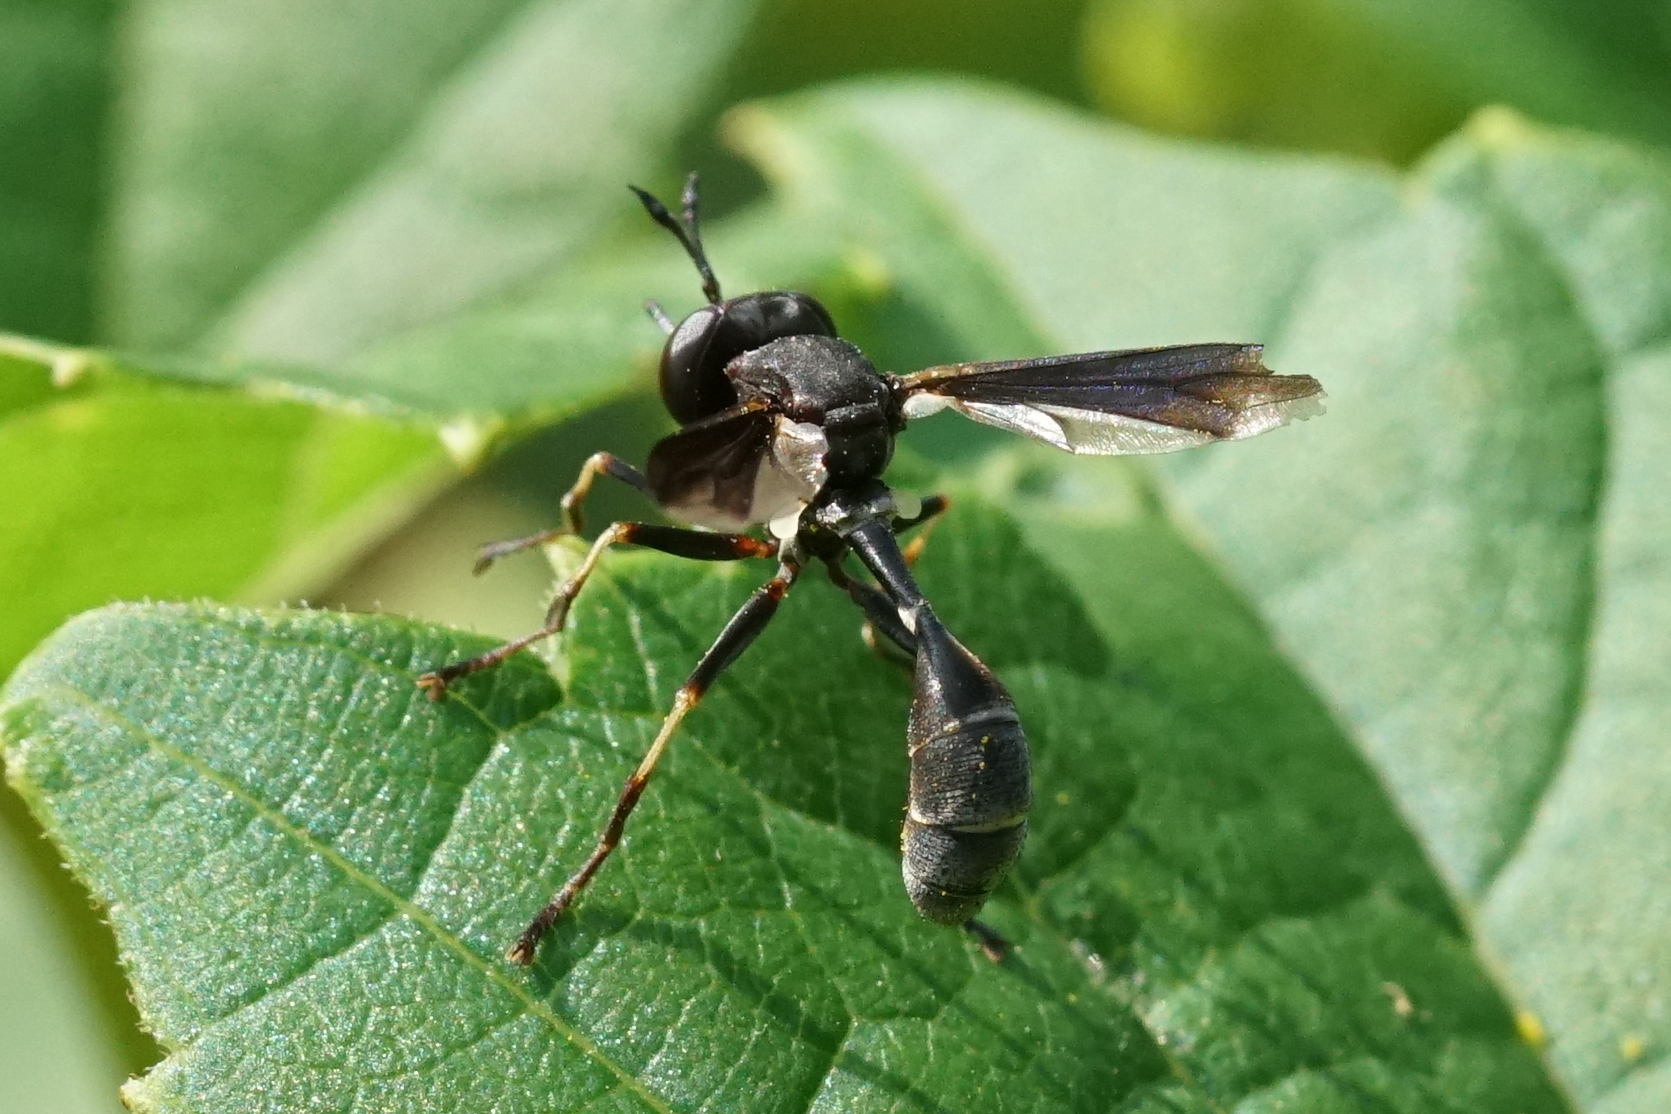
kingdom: Animalia
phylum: Arthropoda
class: Insecta
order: Diptera
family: Conopidae
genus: Physocephala
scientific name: Physocephala tibialis
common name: Common eastern physocephala
